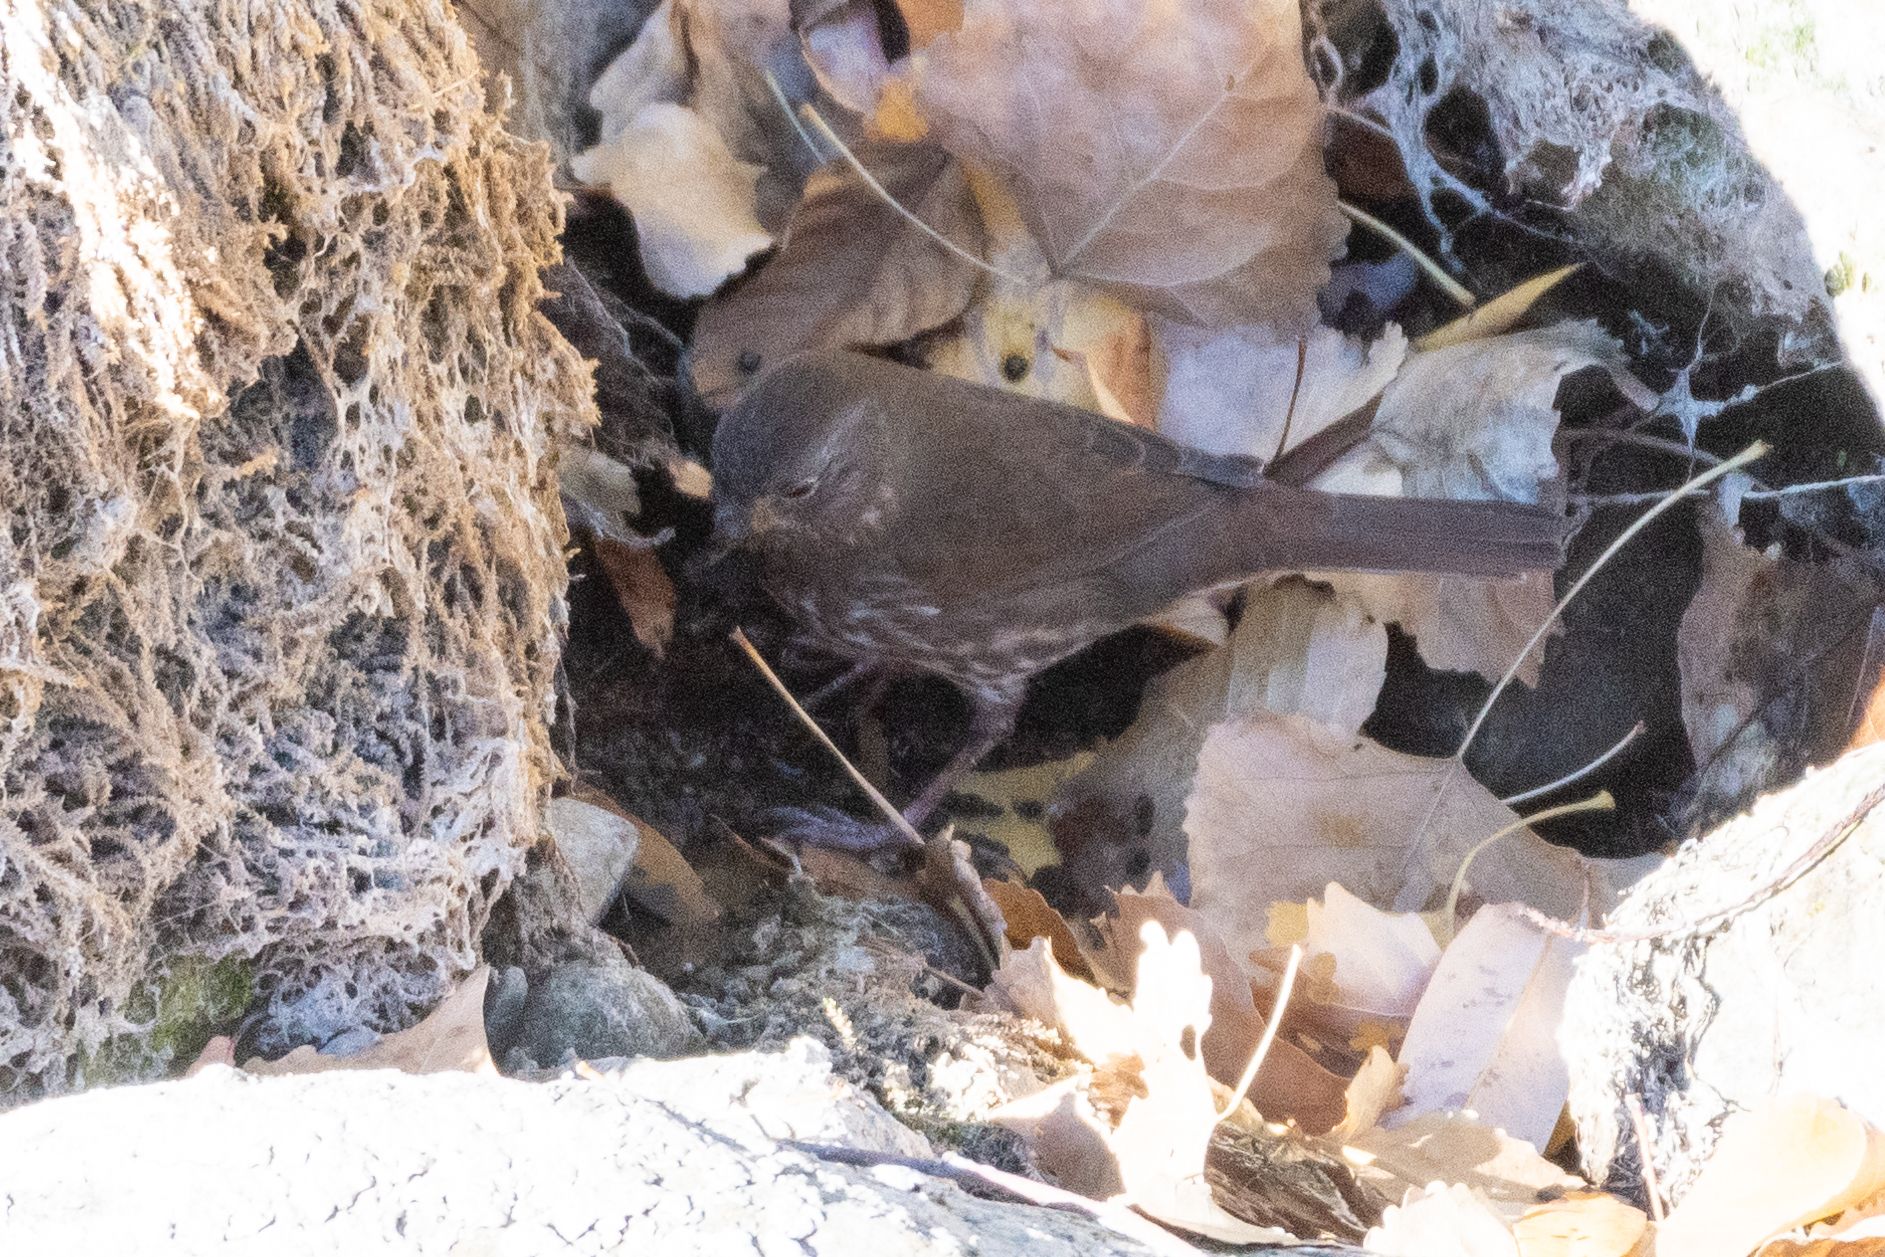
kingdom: Animalia
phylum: Chordata
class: Aves
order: Passeriformes
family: Passerellidae
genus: Passerella
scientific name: Passerella iliaca
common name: Fox sparrow
